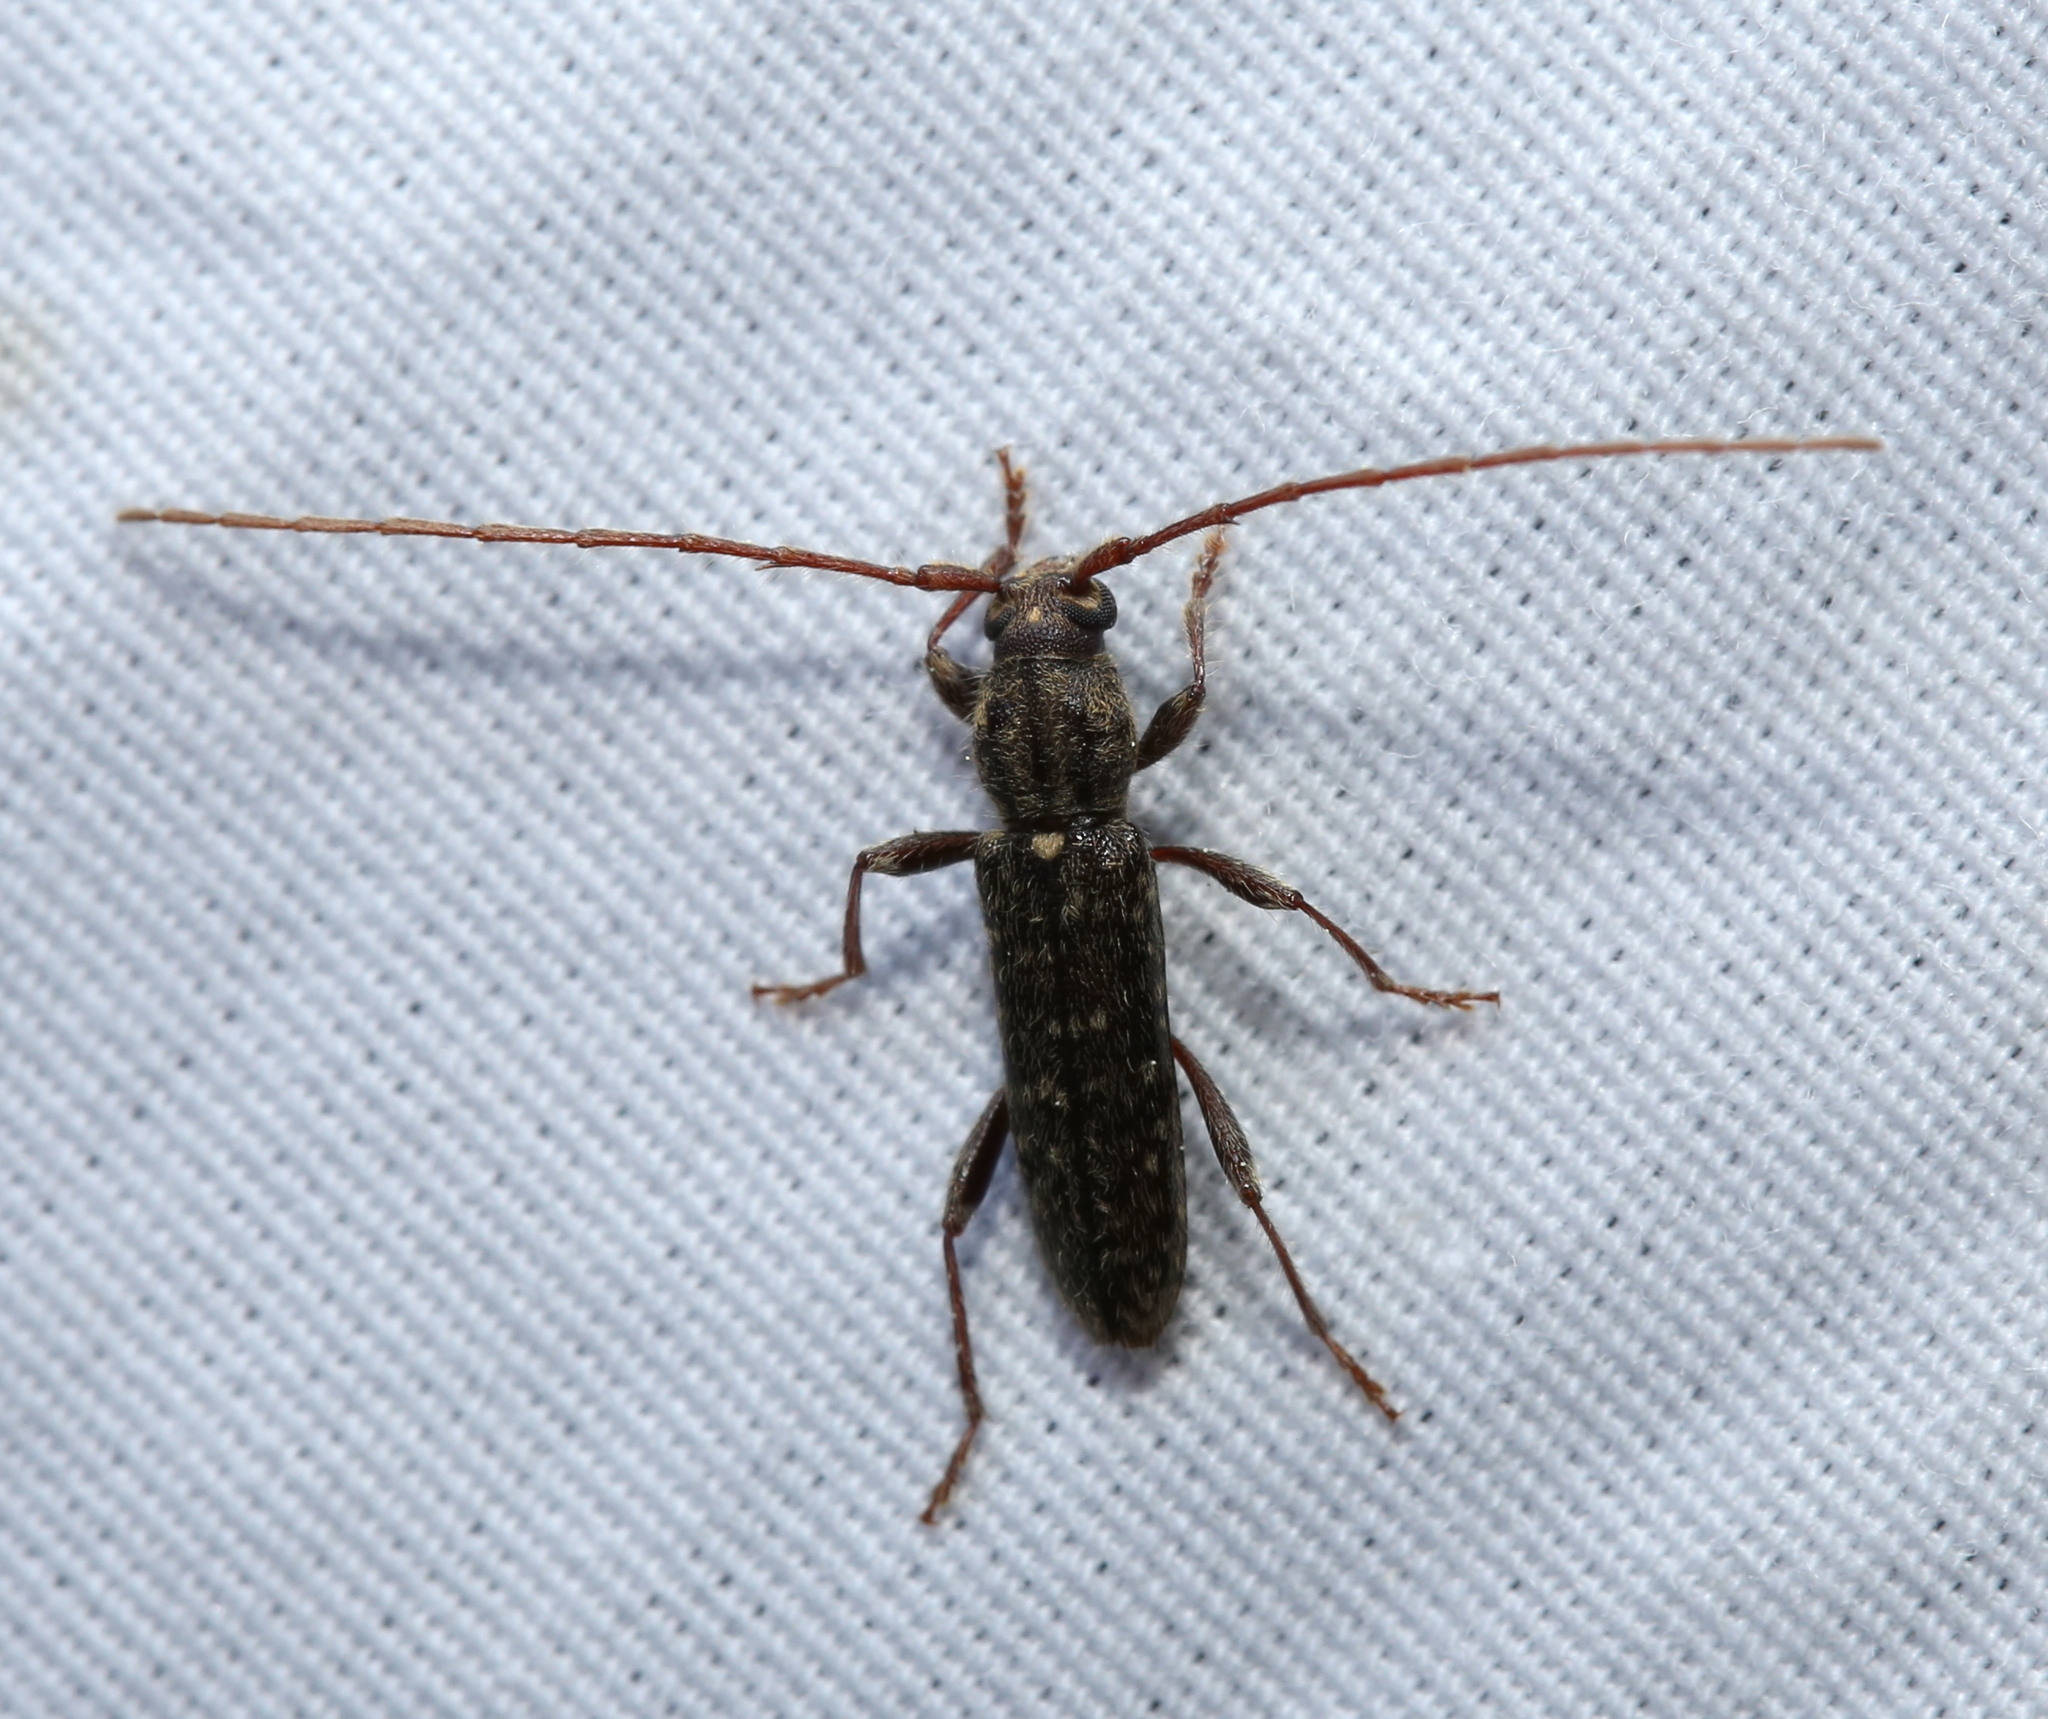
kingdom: Animalia
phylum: Arthropoda
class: Insecta
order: Coleoptera
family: Cerambycidae
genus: Anelaphus
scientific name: Anelaphus pumilus
